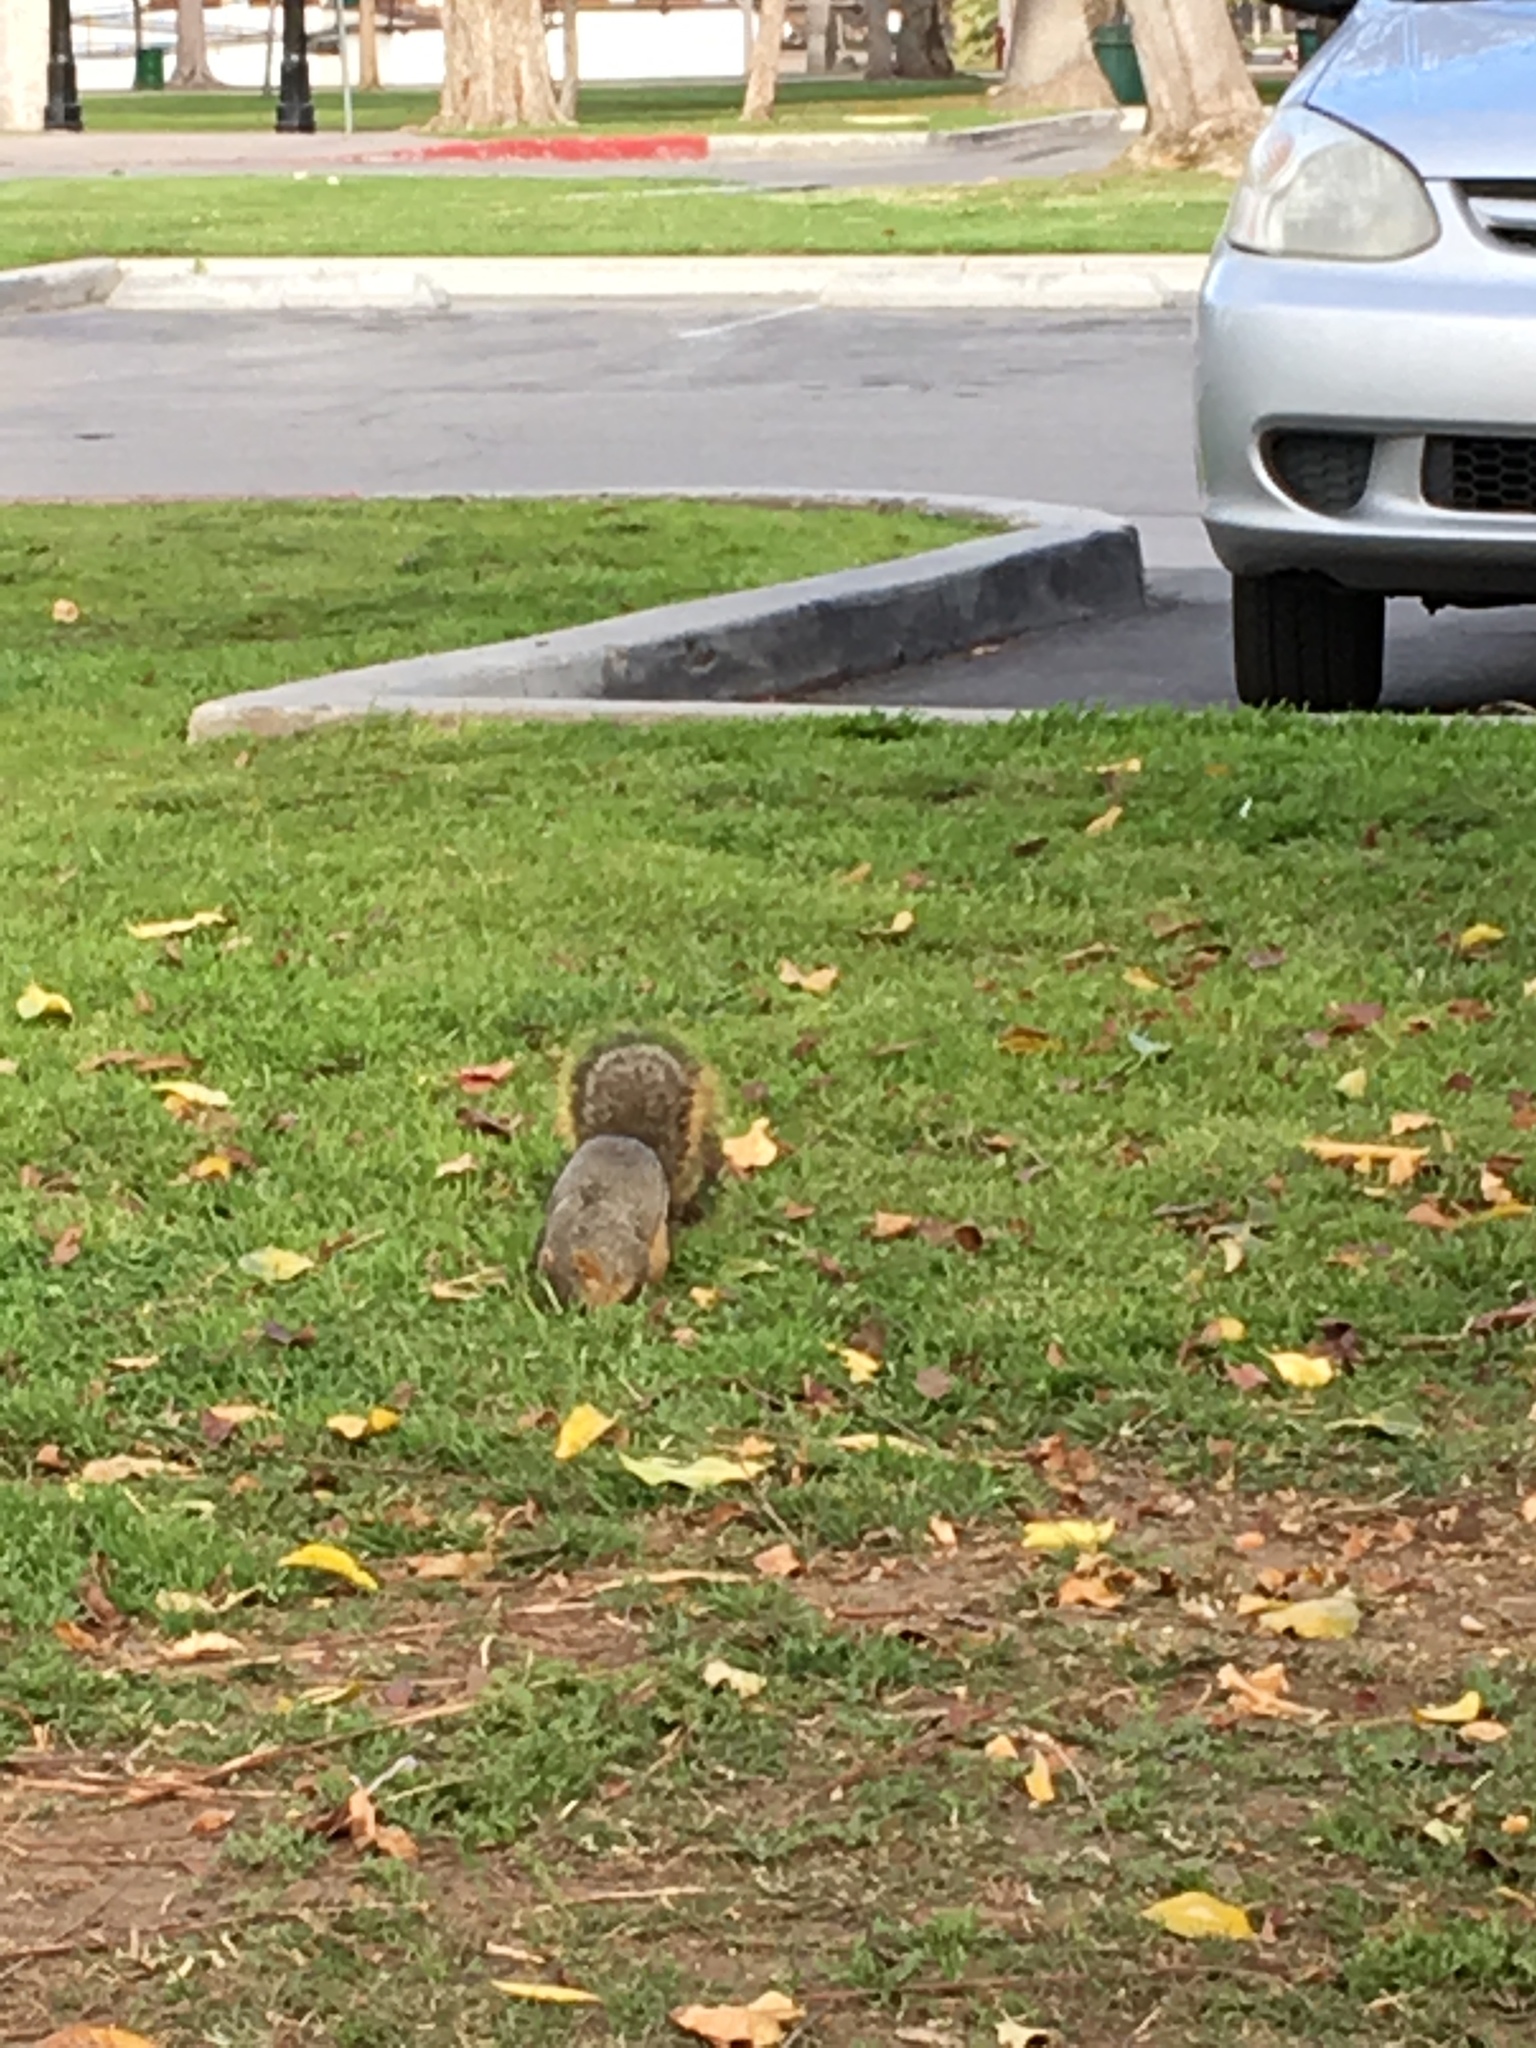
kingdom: Animalia
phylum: Chordata
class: Mammalia
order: Rodentia
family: Sciuridae
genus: Sciurus
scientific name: Sciurus niger
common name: Fox squirrel
